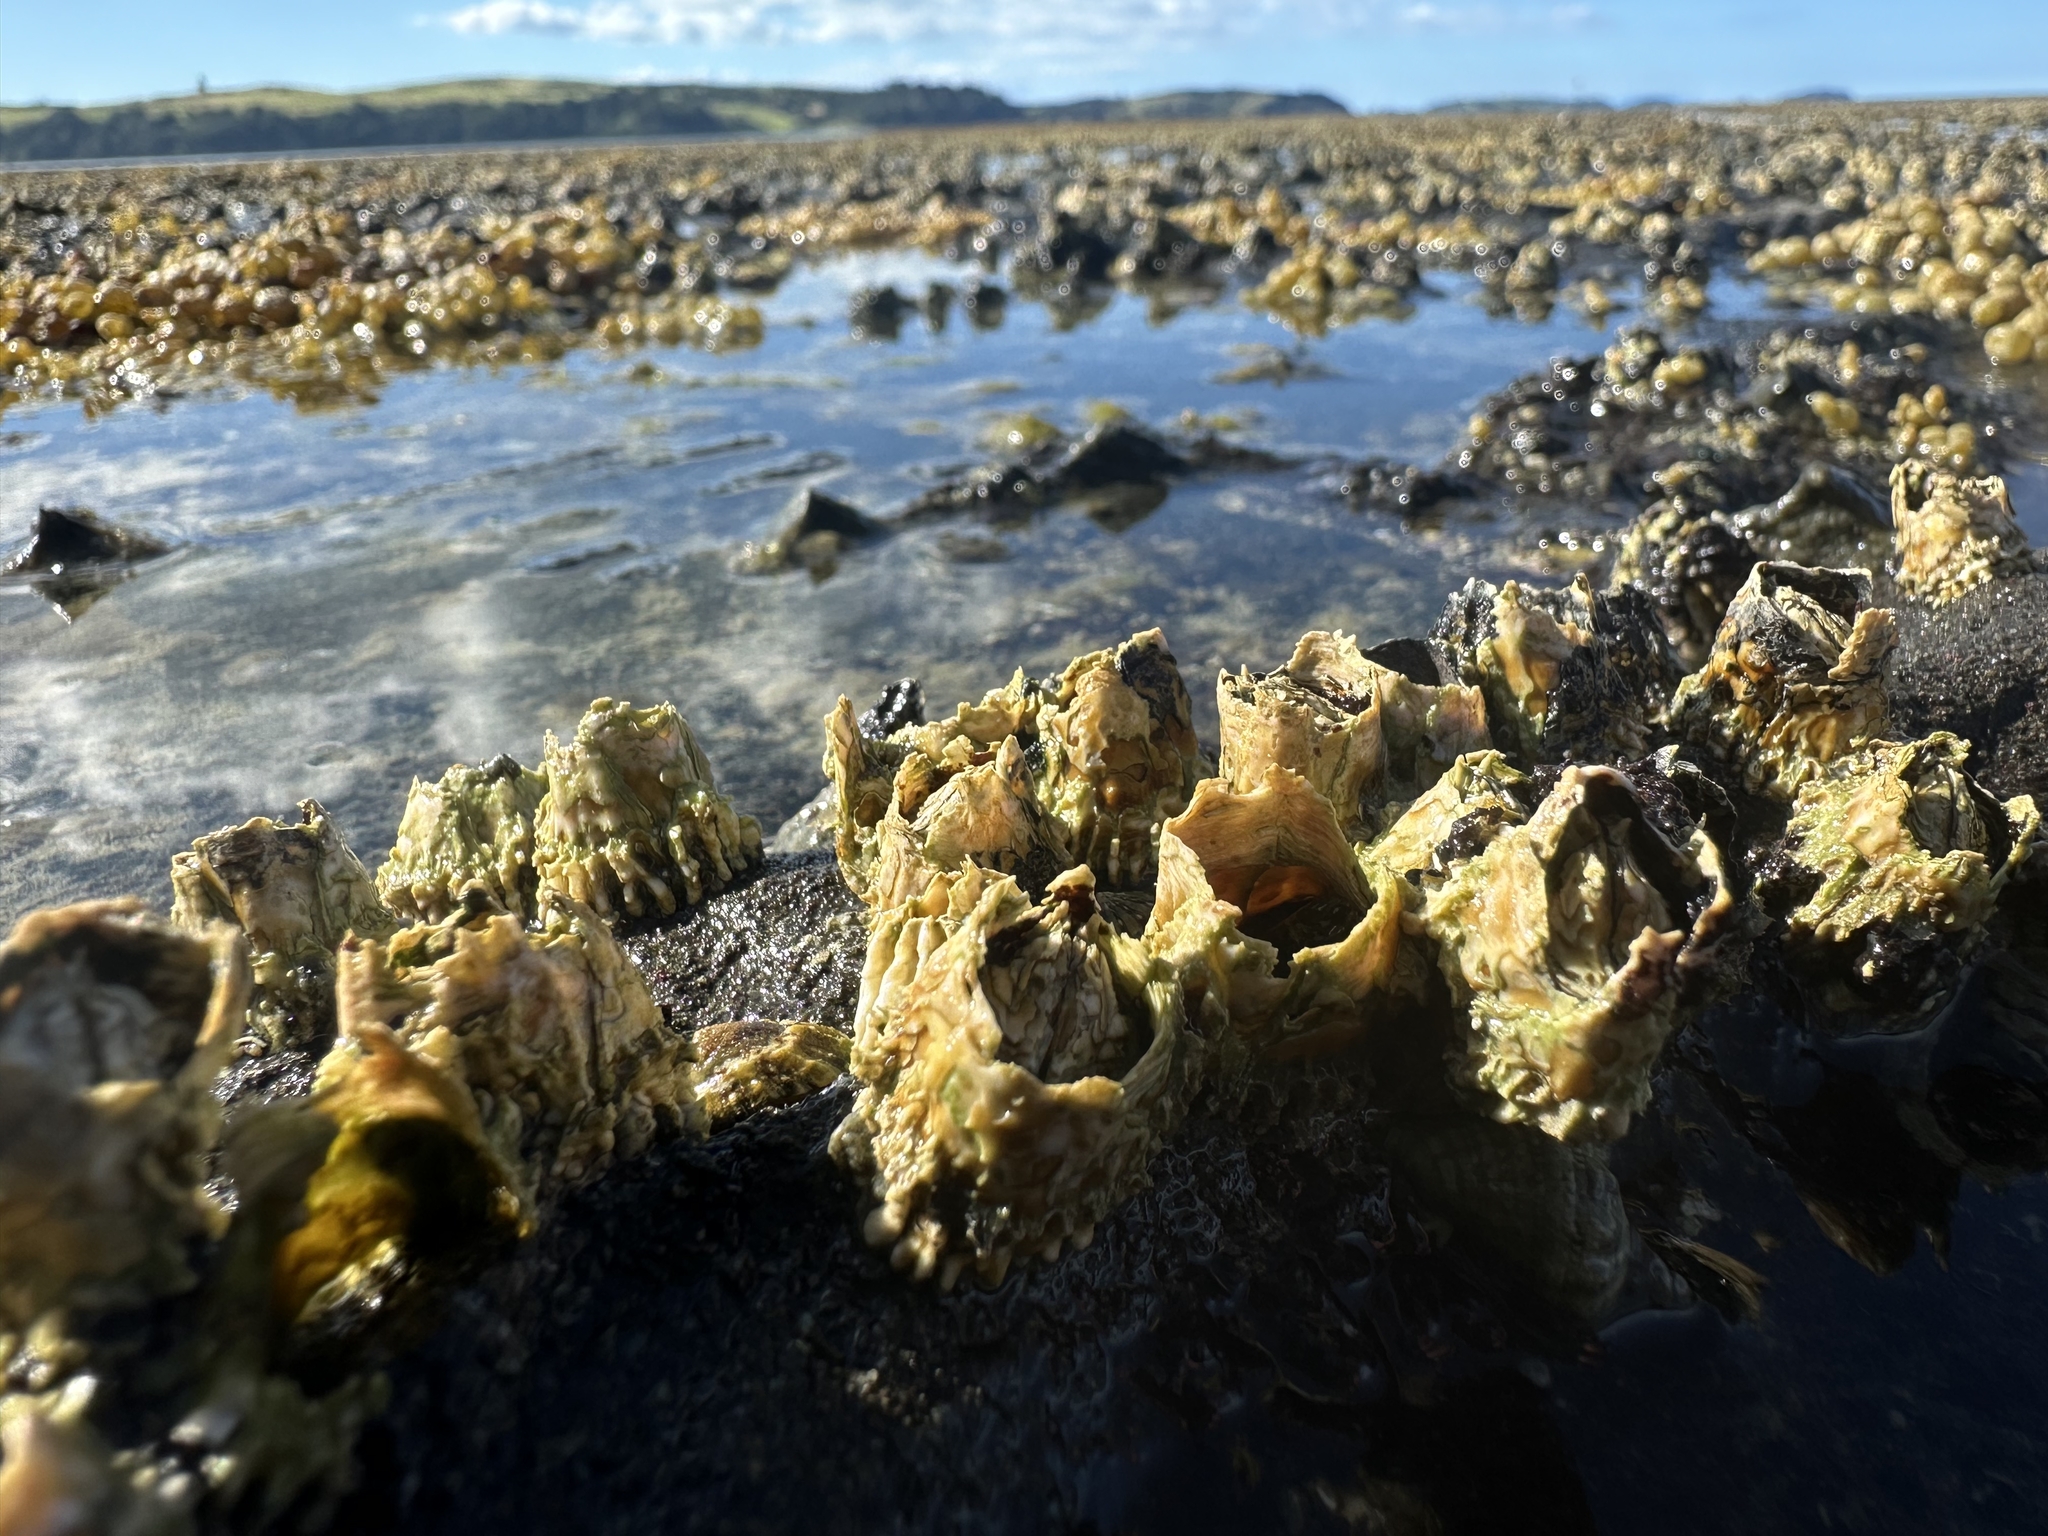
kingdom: Animalia
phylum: Arthropoda
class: Maxillopoda
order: Sessilia
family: Tetraclitidae
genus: Epopella
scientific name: Epopella plicata
